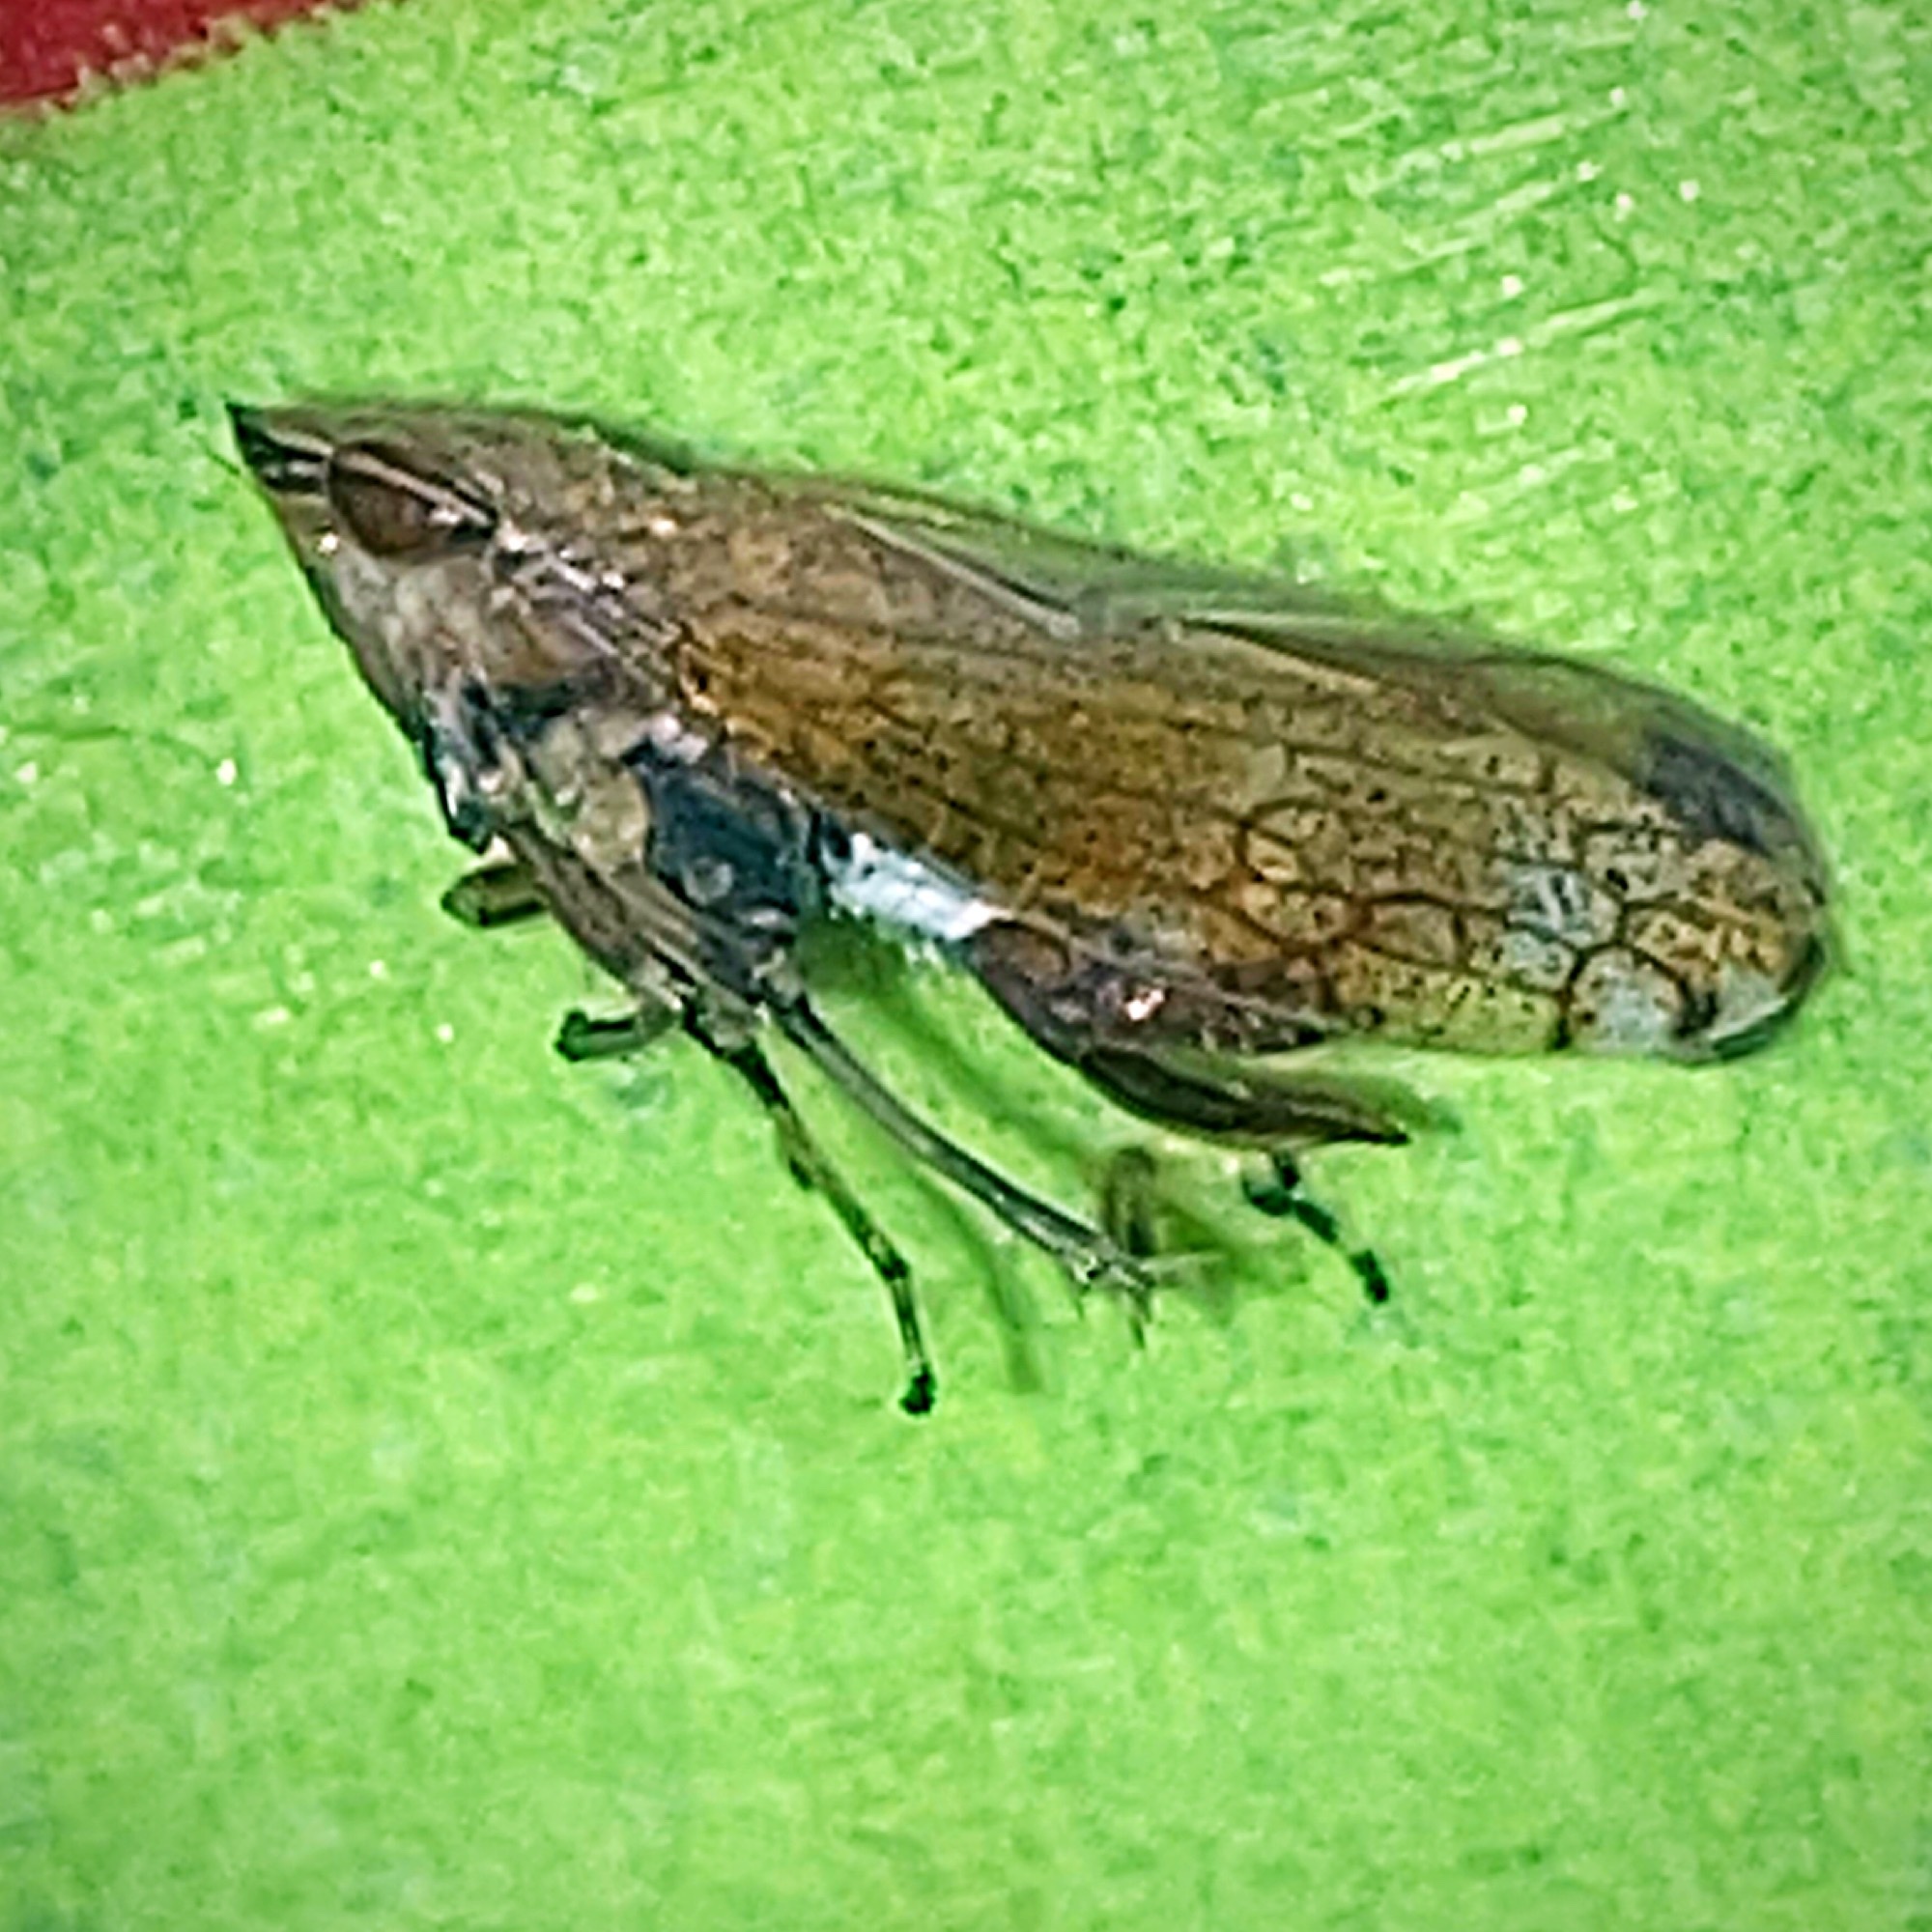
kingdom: Animalia
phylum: Arthropoda
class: Insecta
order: Hemiptera
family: Cicadellidae
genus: Fieberiella
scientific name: Fieberiella florii
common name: Flor’s leafhopper
